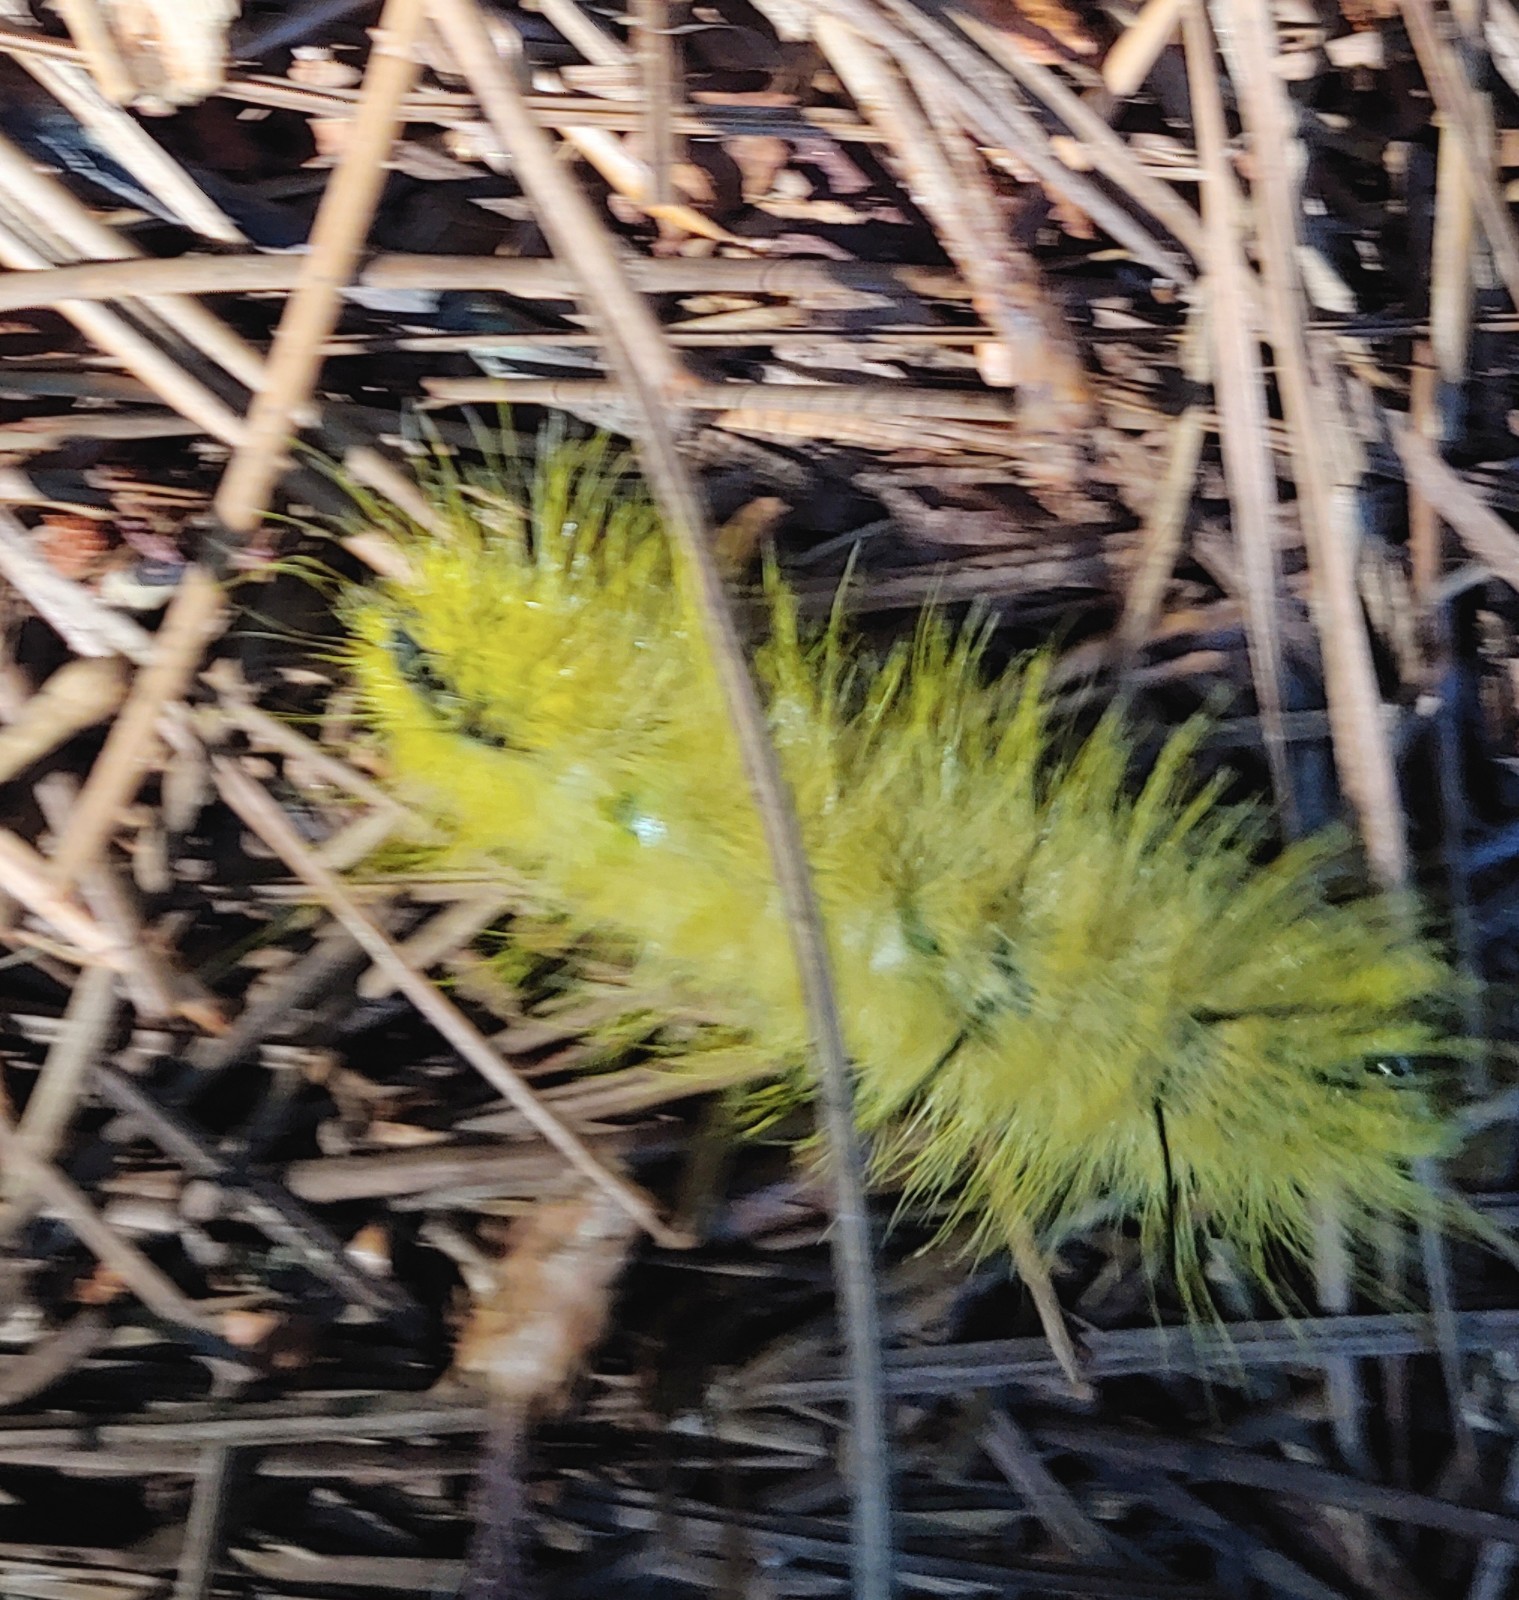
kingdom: Animalia
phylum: Arthropoda
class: Insecta
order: Lepidoptera
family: Noctuidae
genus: Acronicta
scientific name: Acronicta americana
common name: American dagger
